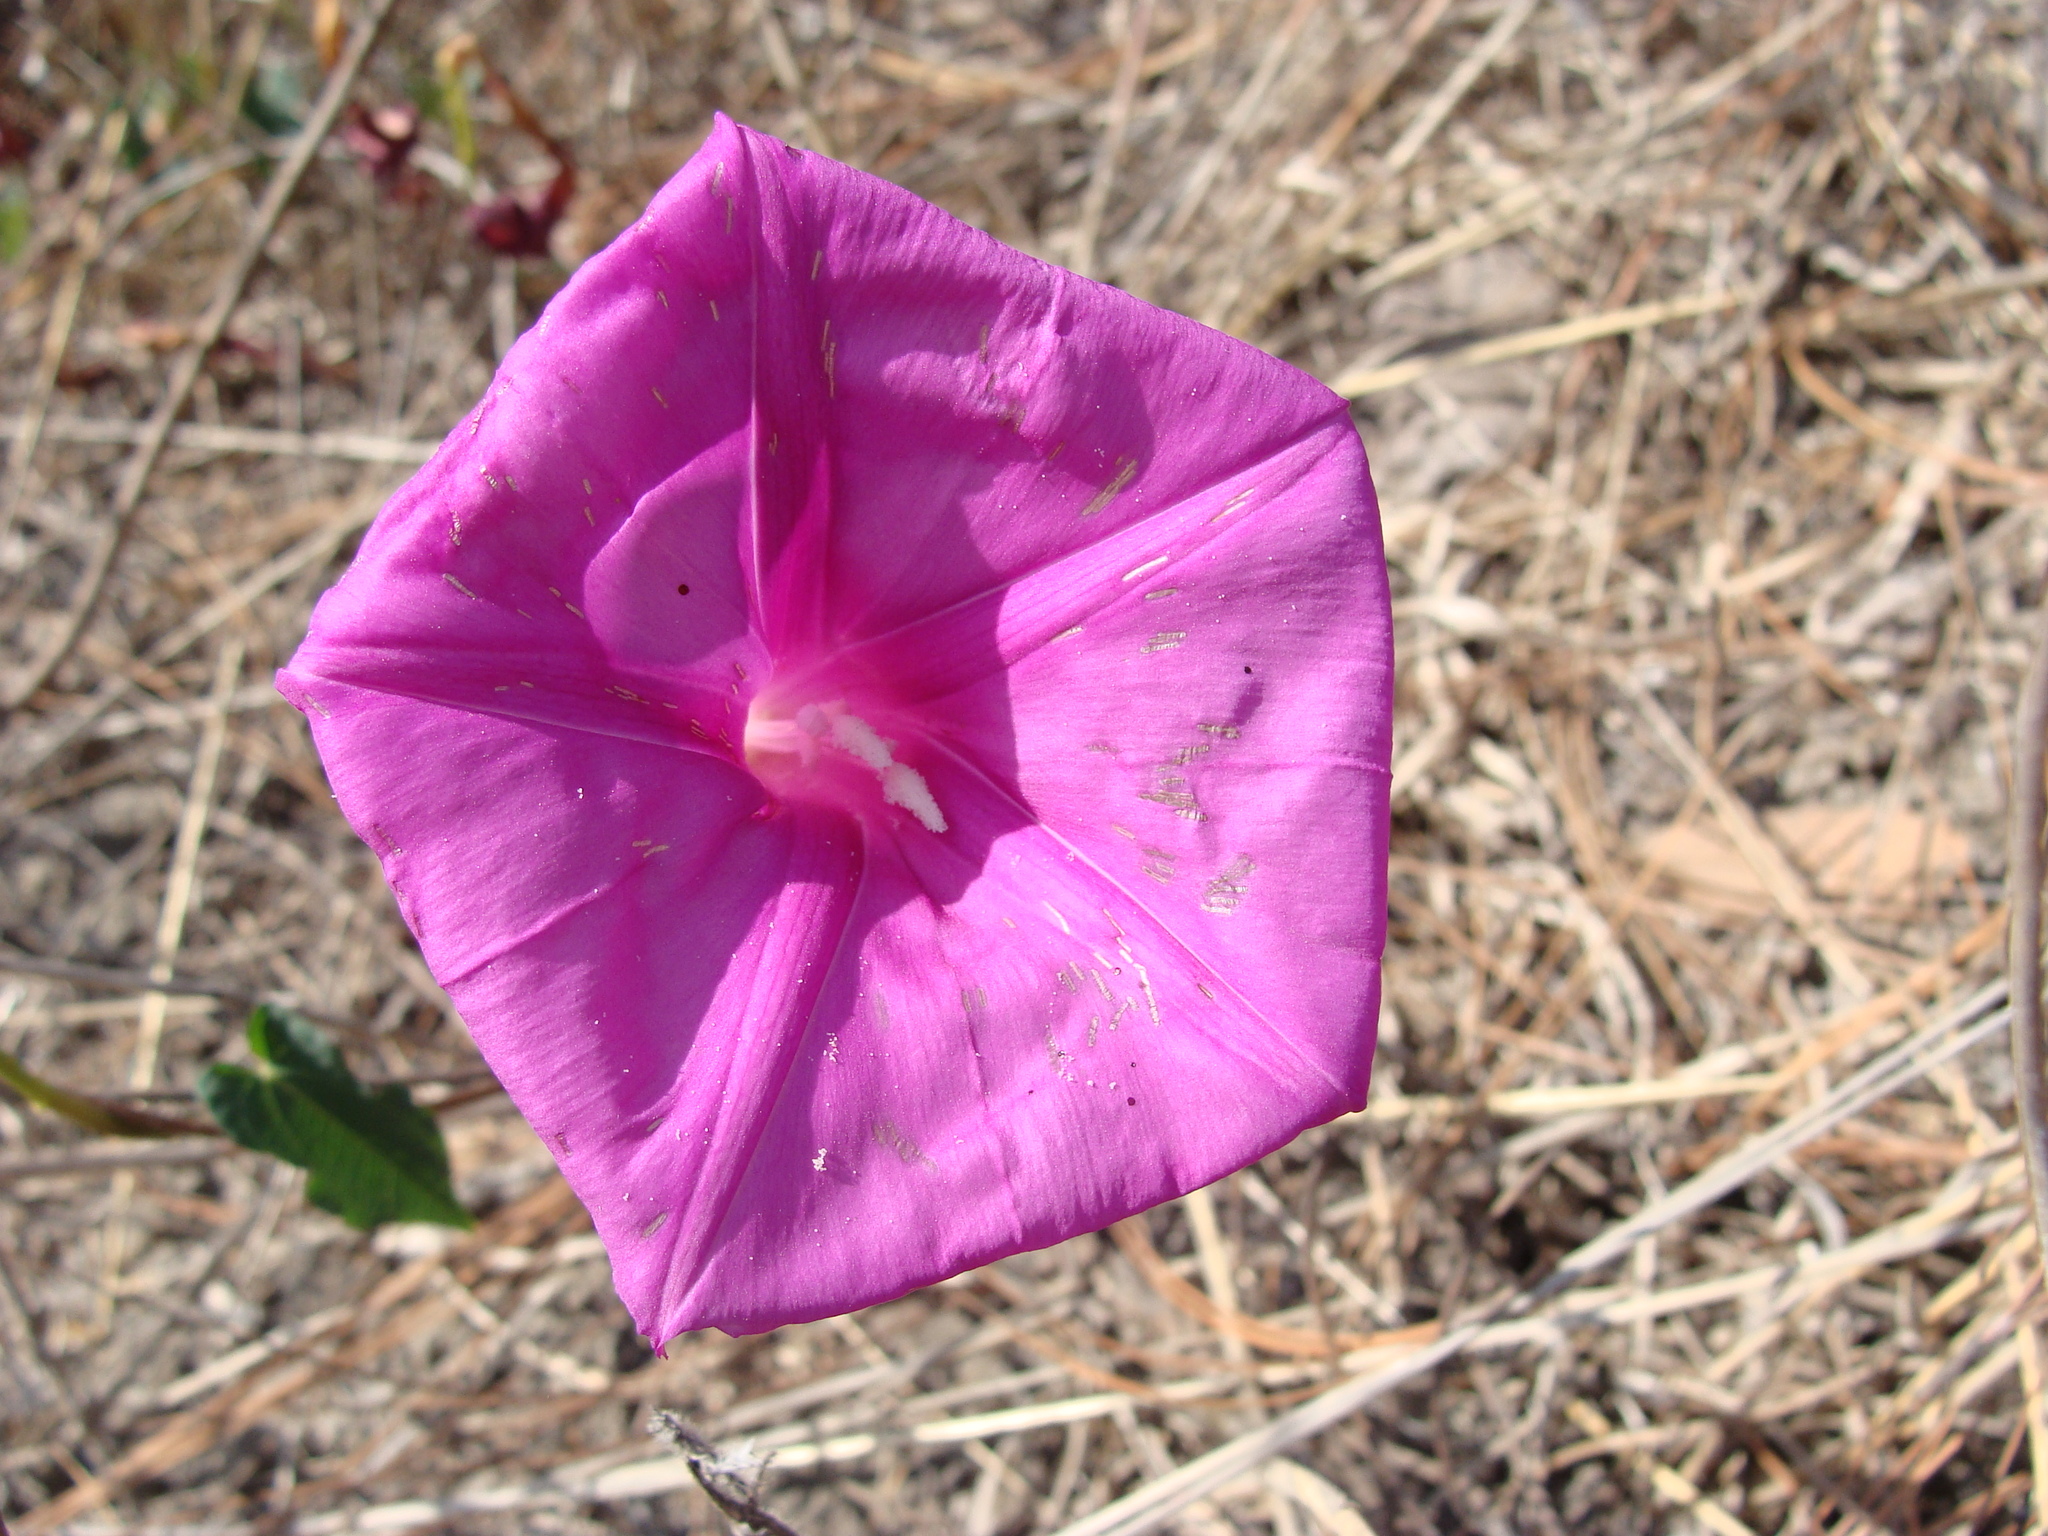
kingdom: Plantae
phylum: Tracheophyta
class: Magnoliopsida
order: Solanales
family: Convolvulaceae
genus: Ipomoea
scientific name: Ipomoea lozanii
